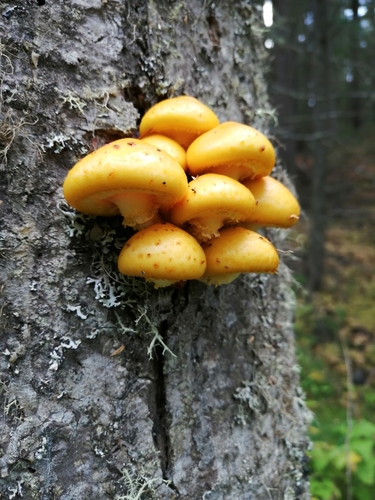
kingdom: Fungi
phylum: Basidiomycota
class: Agaricomycetes
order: Agaricales
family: Strophariaceae
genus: Pholiota
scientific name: Pholiota
